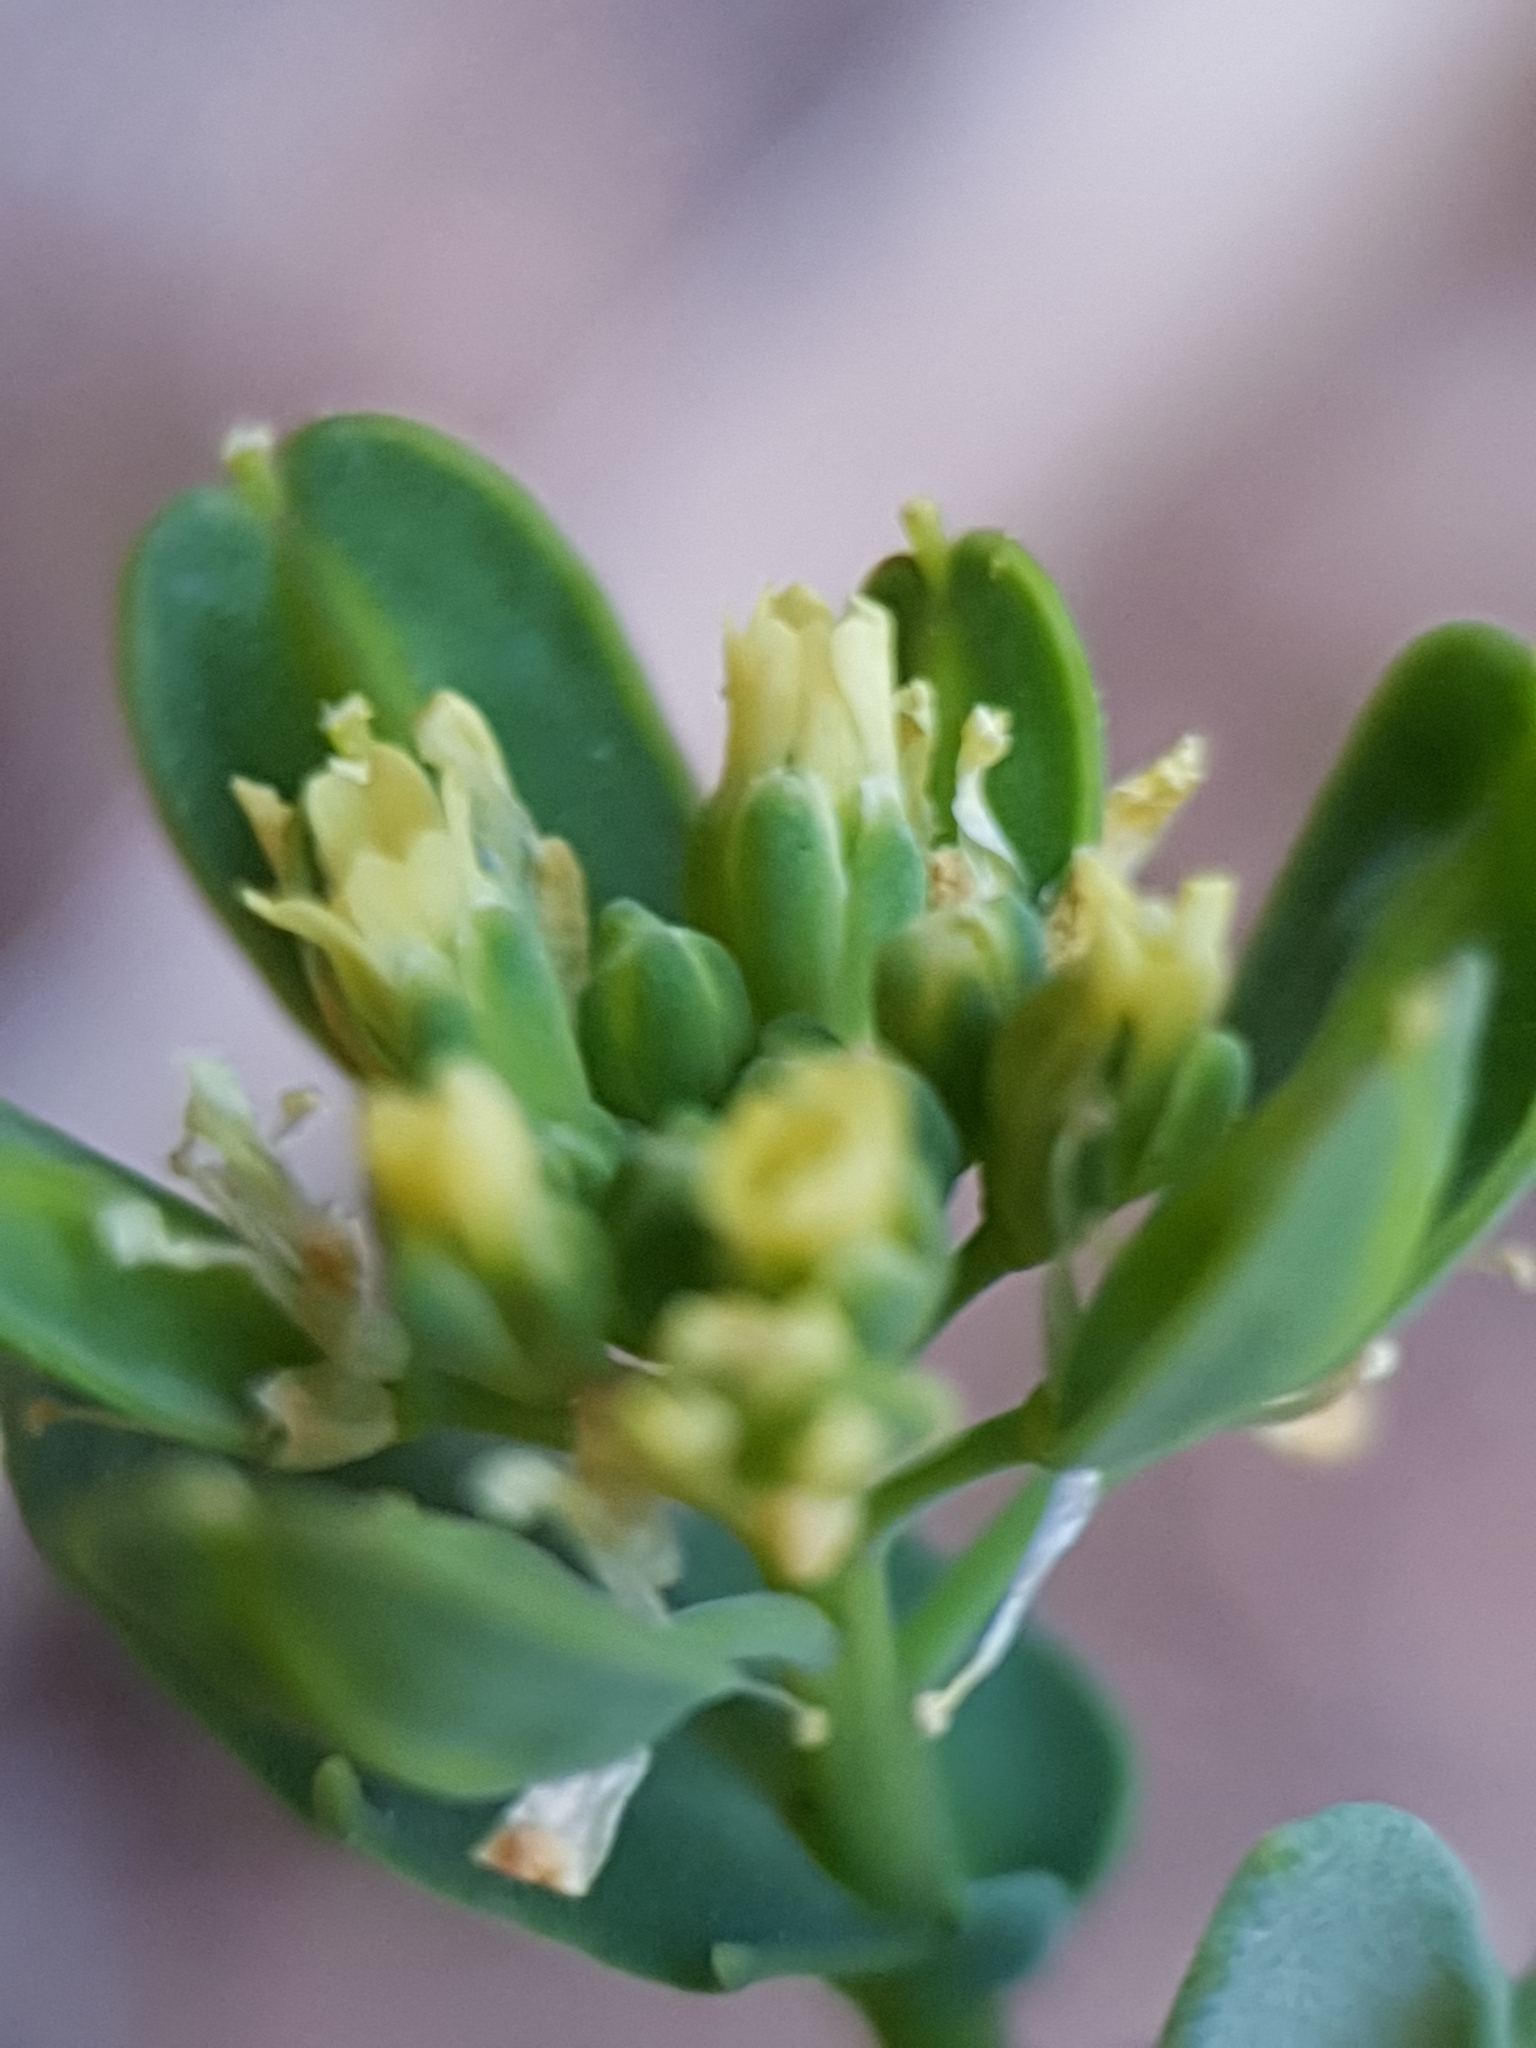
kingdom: Plantae
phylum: Tracheophyta
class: Magnoliopsida
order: Brassicales
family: Brassicaceae
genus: Bivonaea
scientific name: Bivonaea lutea
